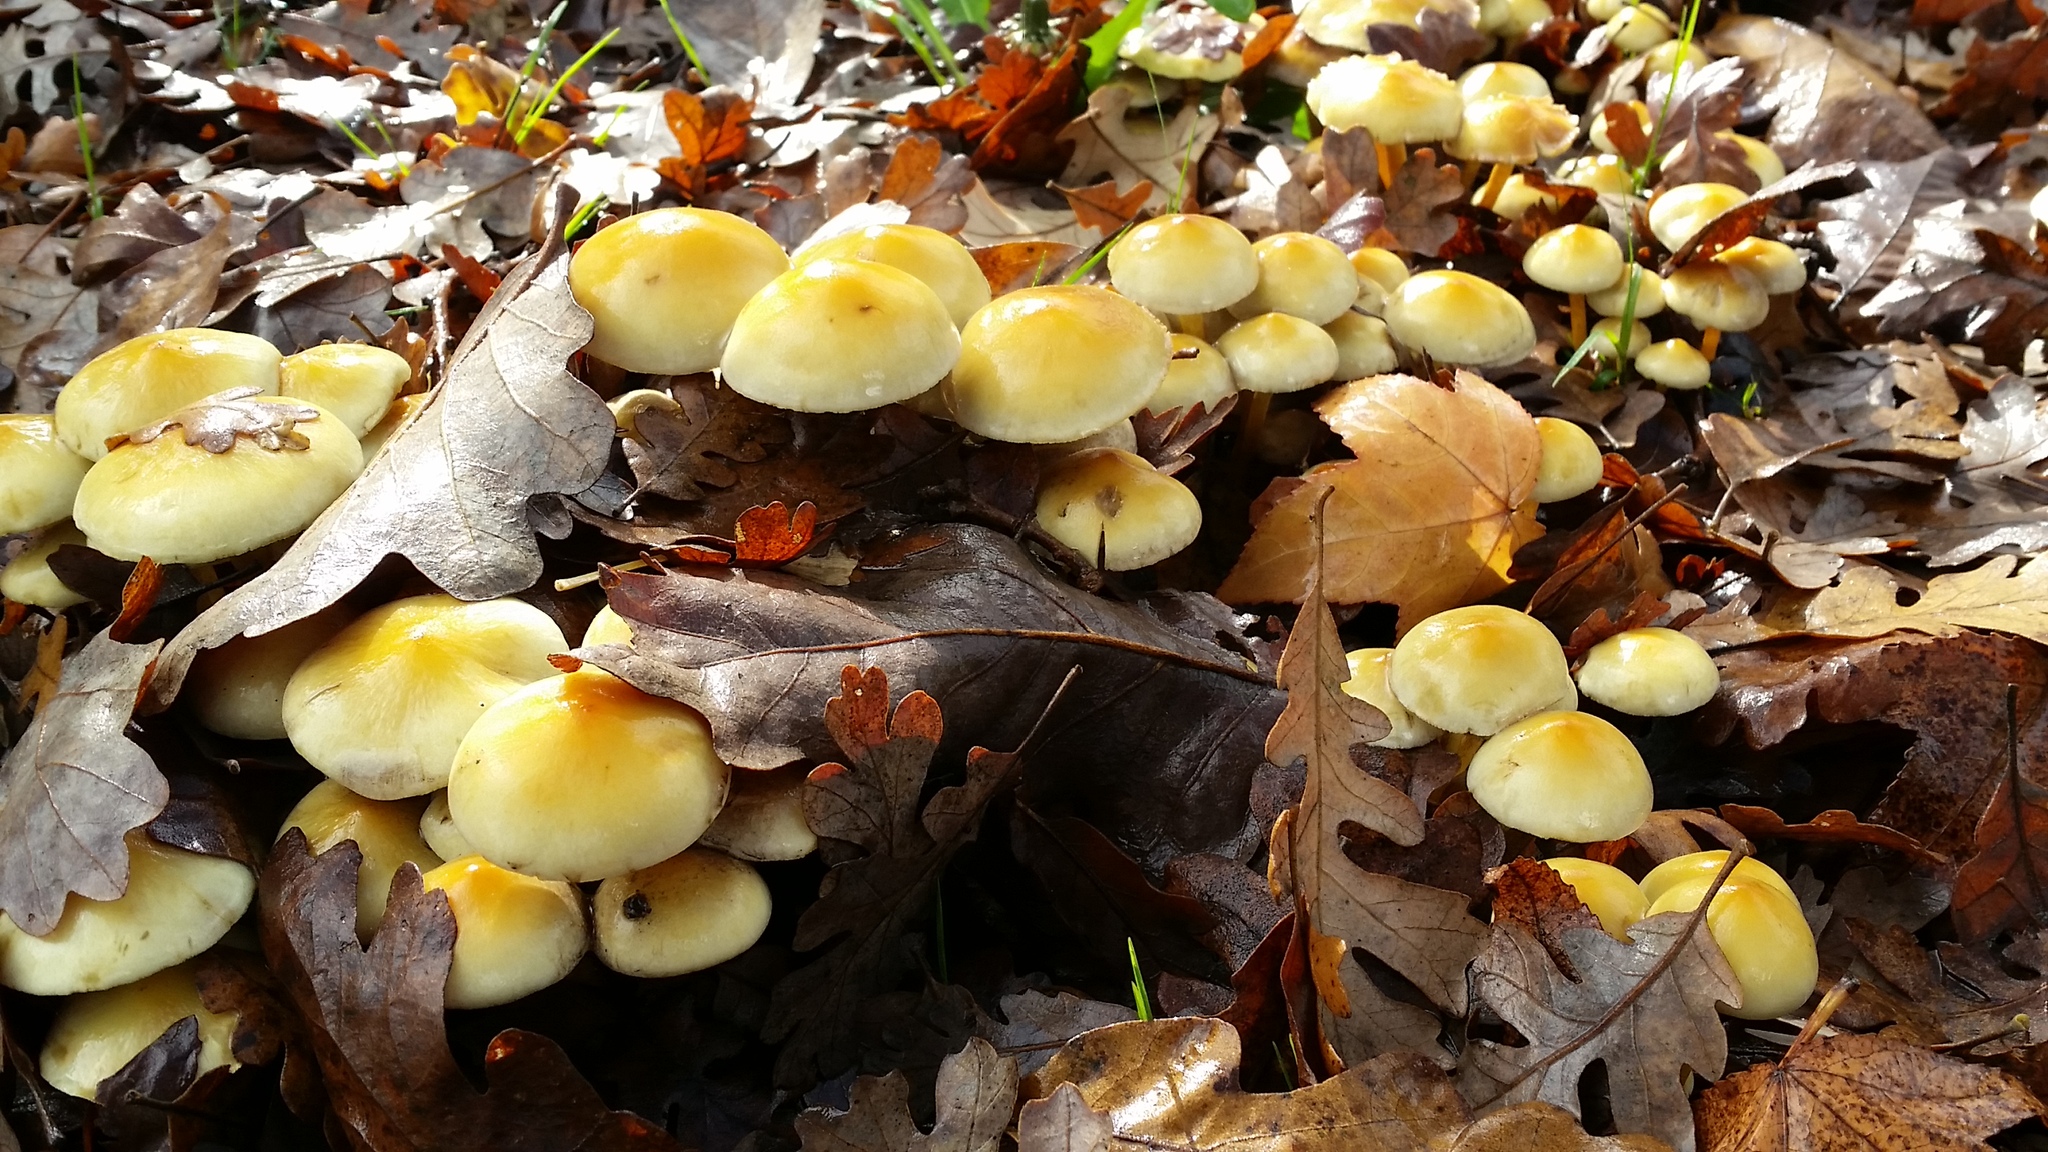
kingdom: Fungi
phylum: Basidiomycota
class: Agaricomycetes
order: Agaricales
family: Strophariaceae
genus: Hypholoma
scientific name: Hypholoma fasciculare
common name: Sulphur tuft
